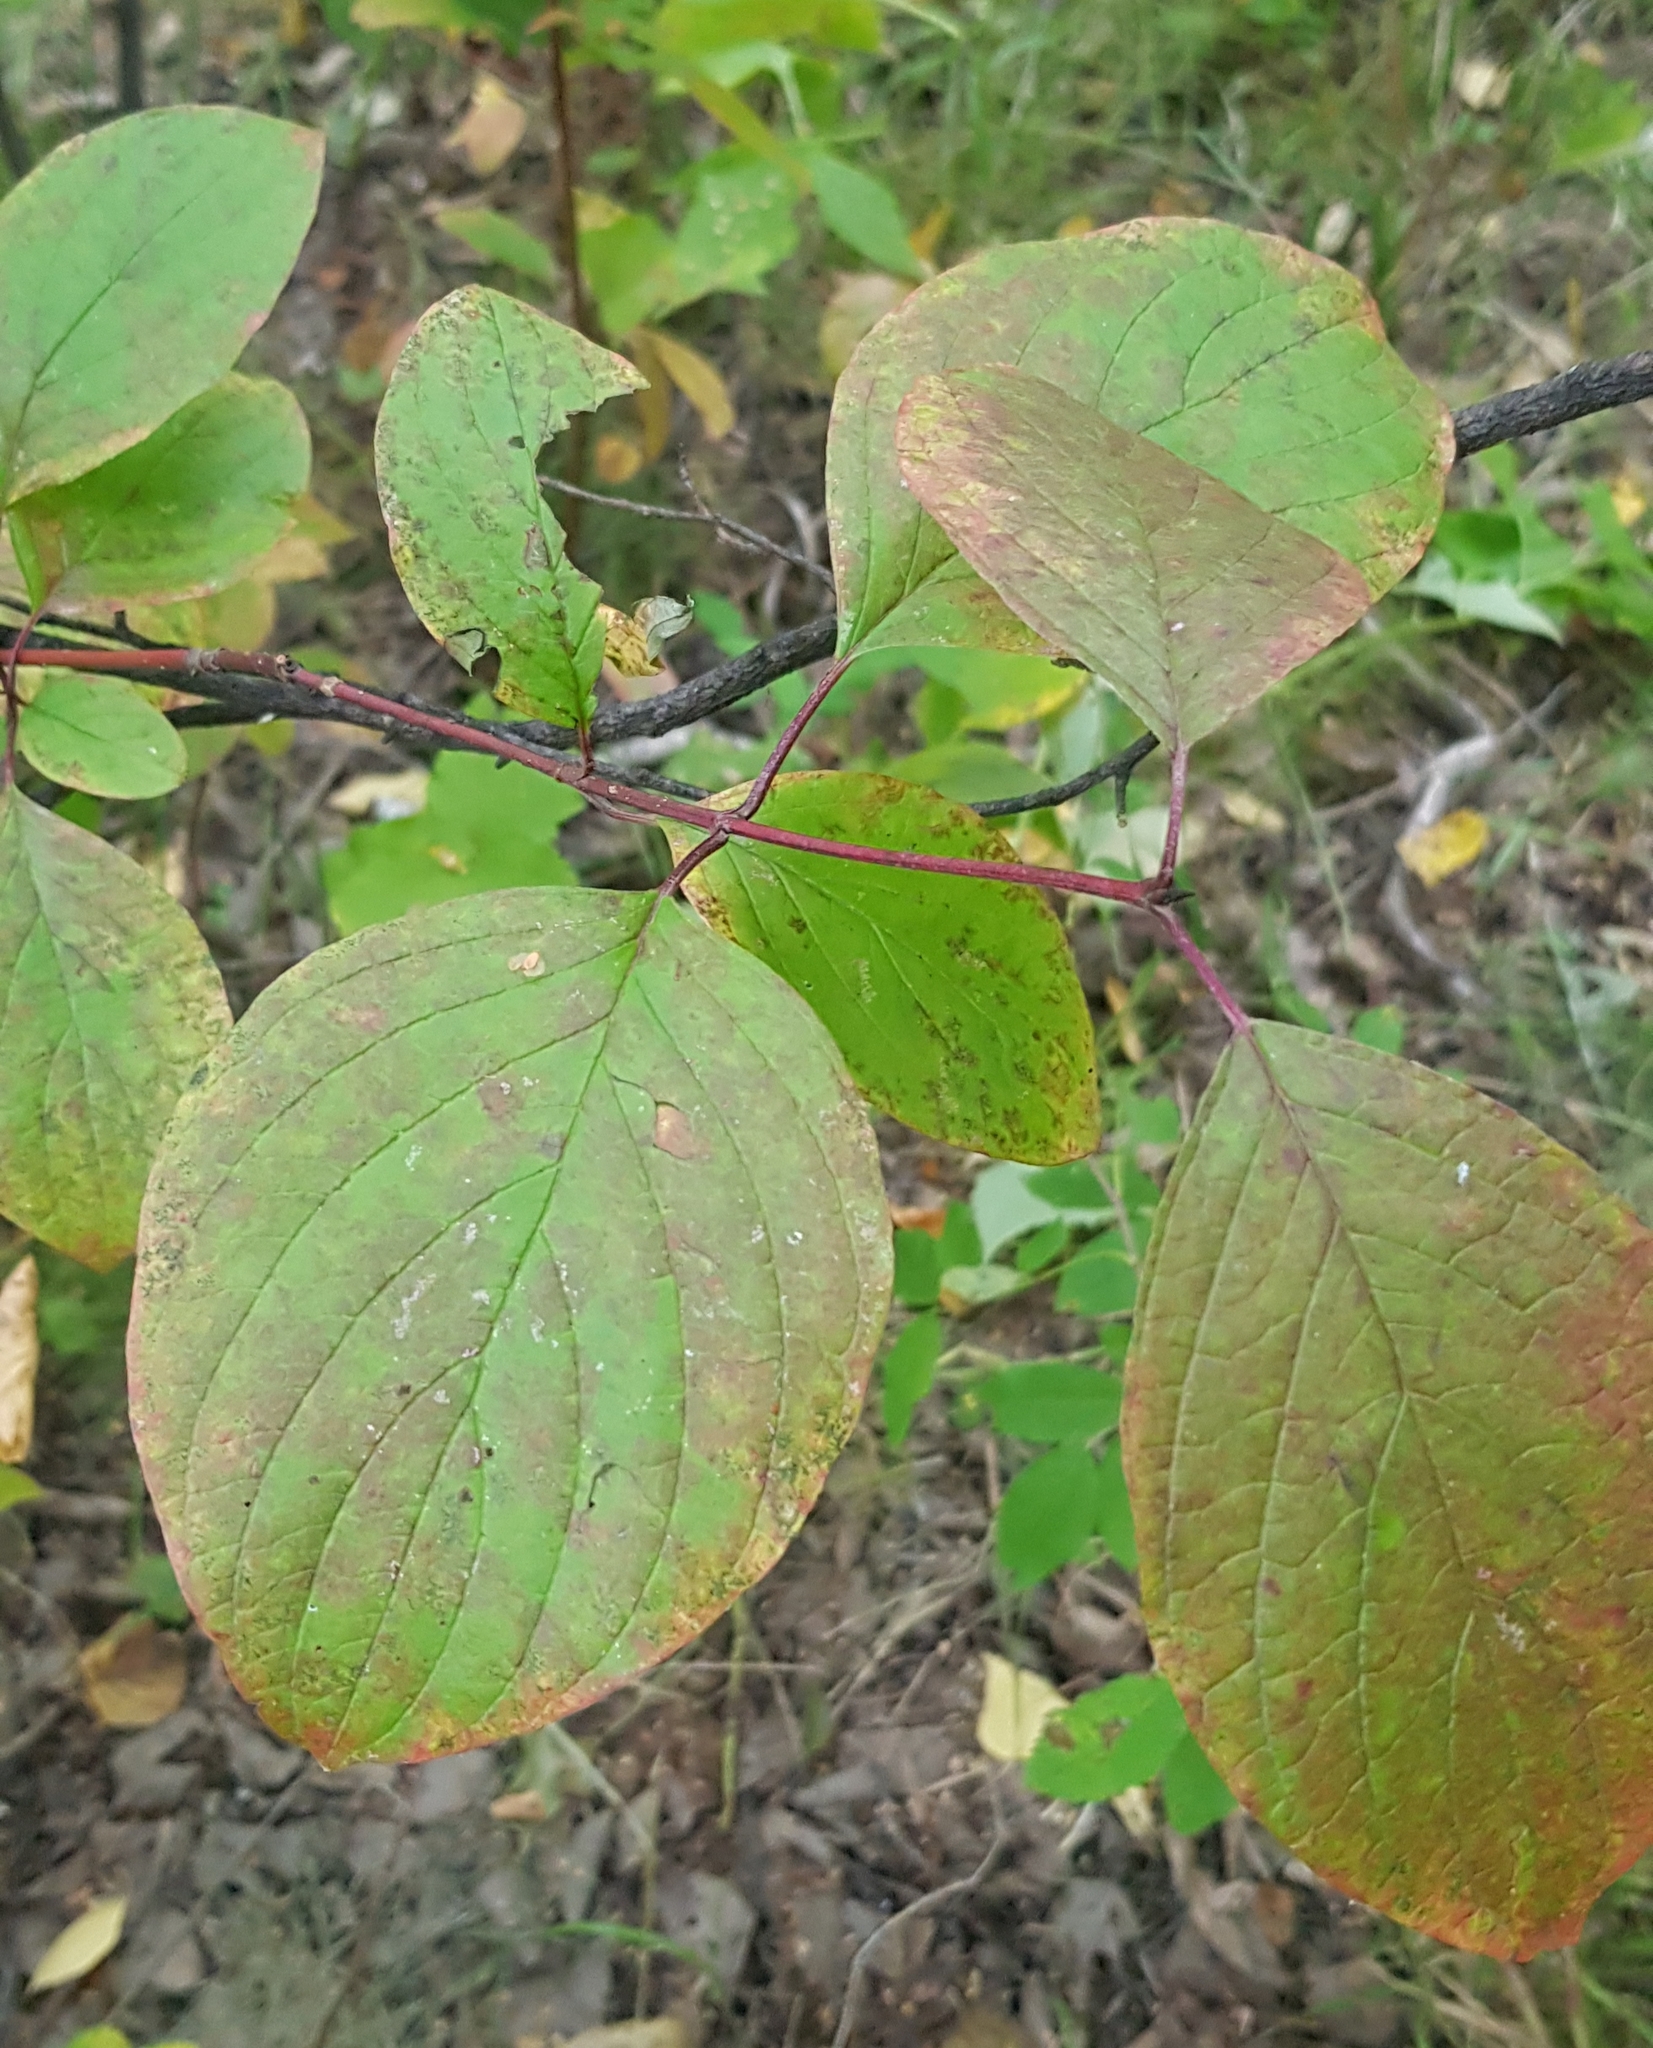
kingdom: Plantae
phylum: Tracheophyta
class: Magnoliopsida
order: Cornales
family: Cornaceae
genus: Cornus
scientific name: Cornus alba
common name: White dogwood
